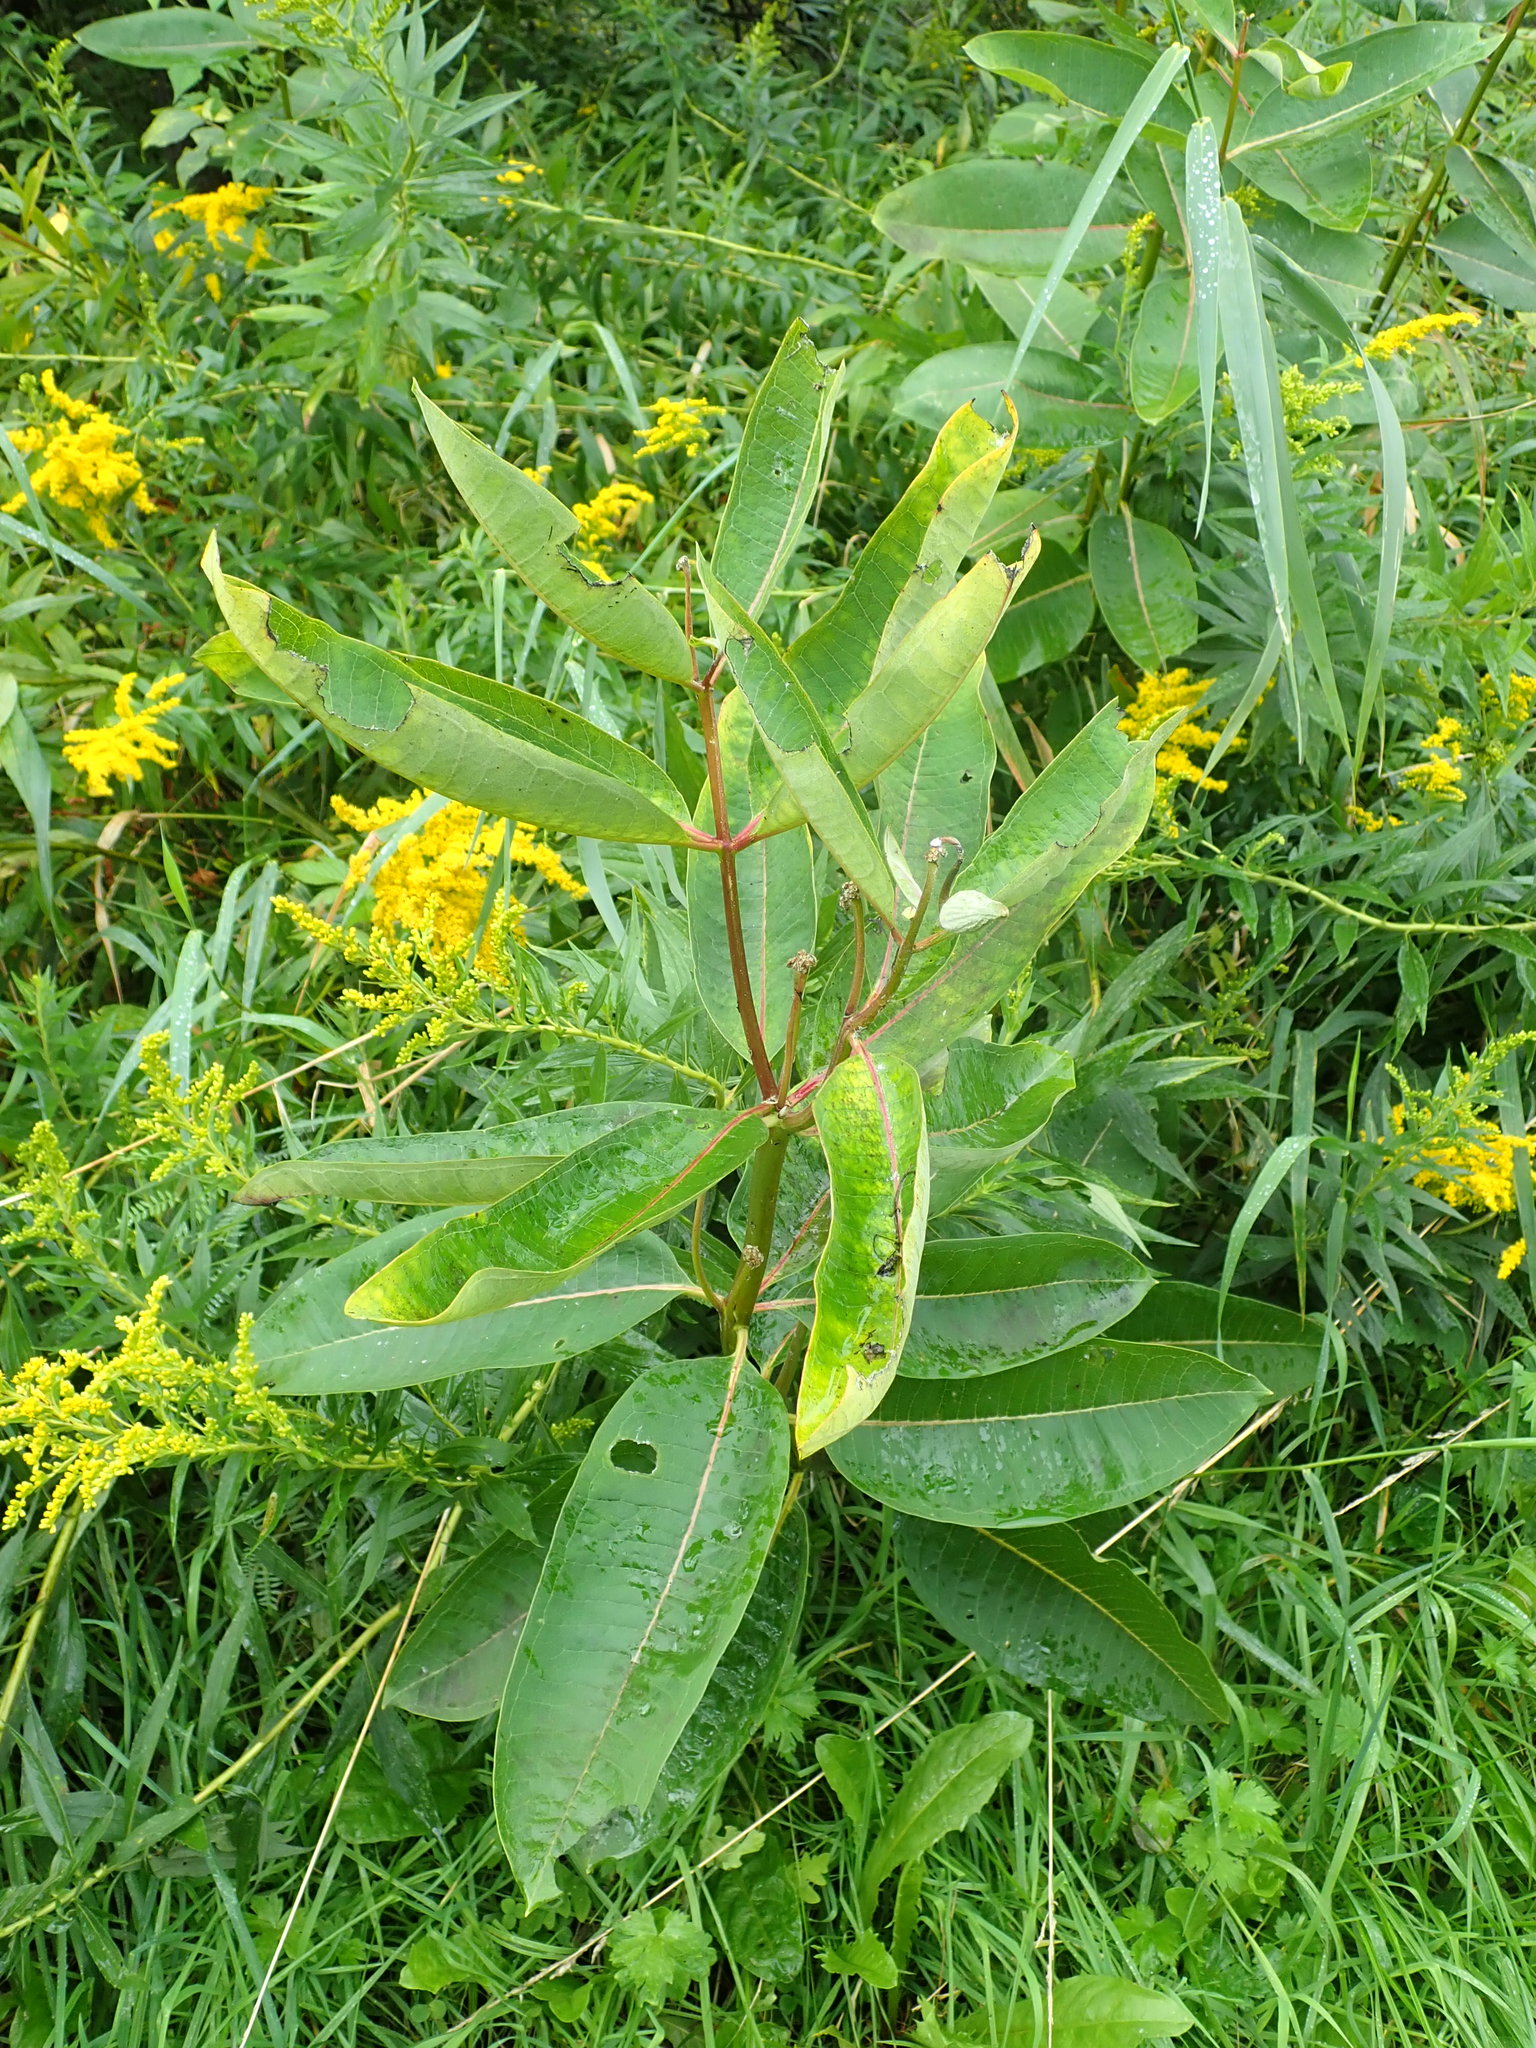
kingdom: Plantae
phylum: Tracheophyta
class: Magnoliopsida
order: Gentianales
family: Apocynaceae
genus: Asclepias
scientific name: Asclepias syriaca
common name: Common milkweed
